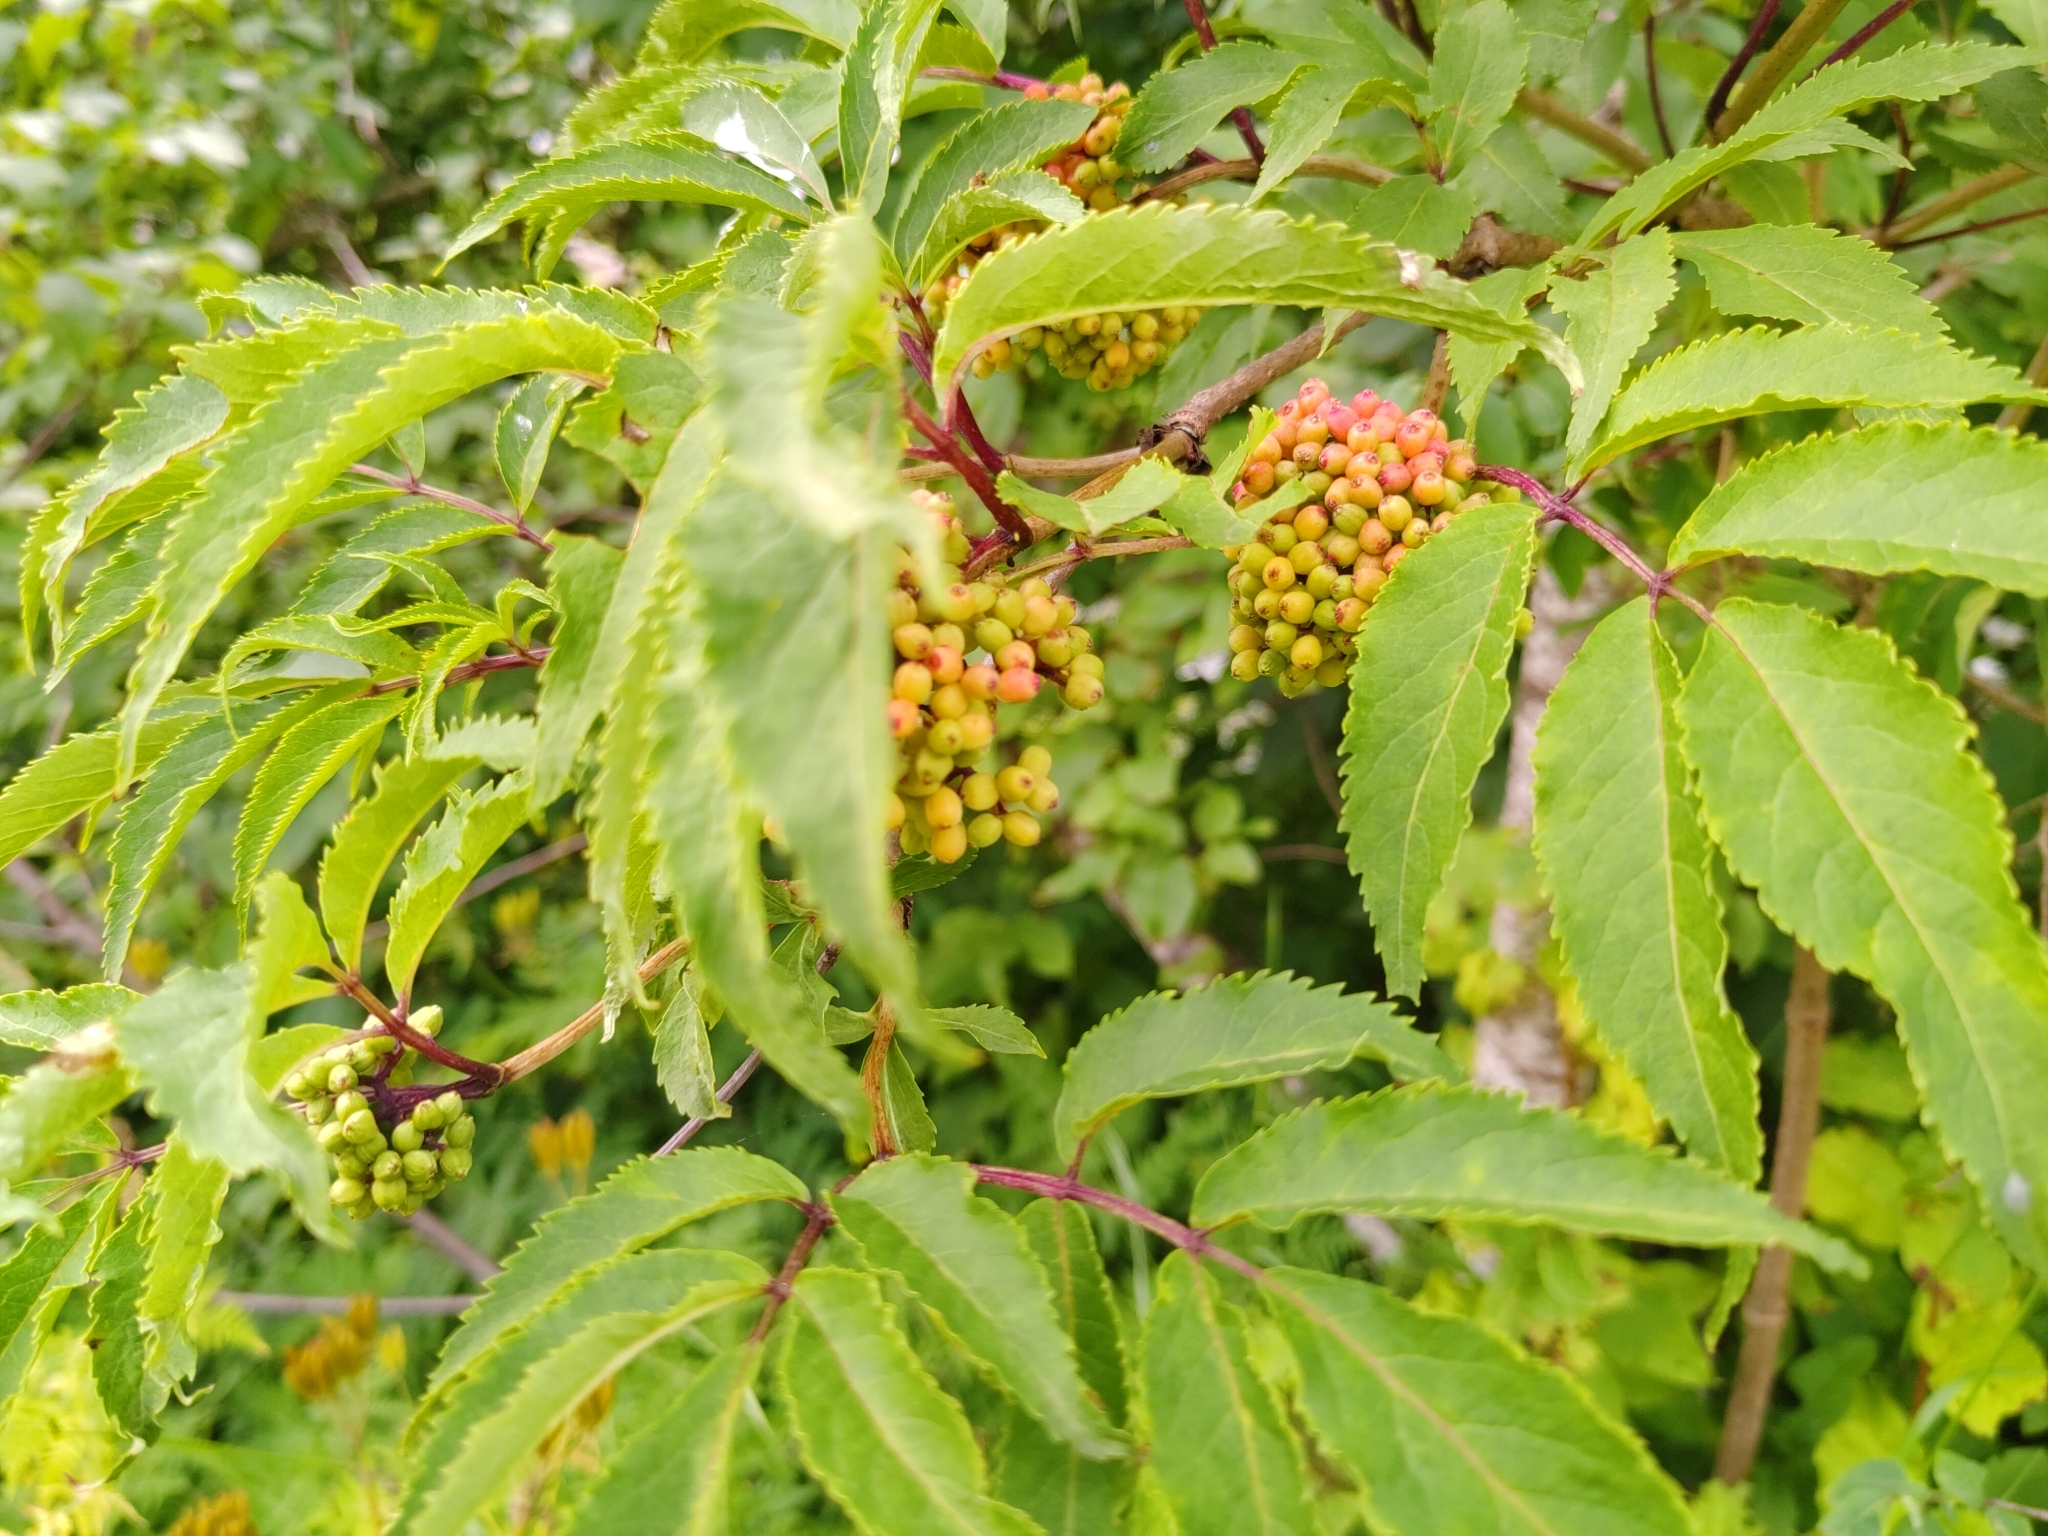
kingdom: Plantae
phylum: Tracheophyta
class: Magnoliopsida
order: Dipsacales
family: Viburnaceae
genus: Sambucus
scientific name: Sambucus racemosa
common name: Red-berried elder
